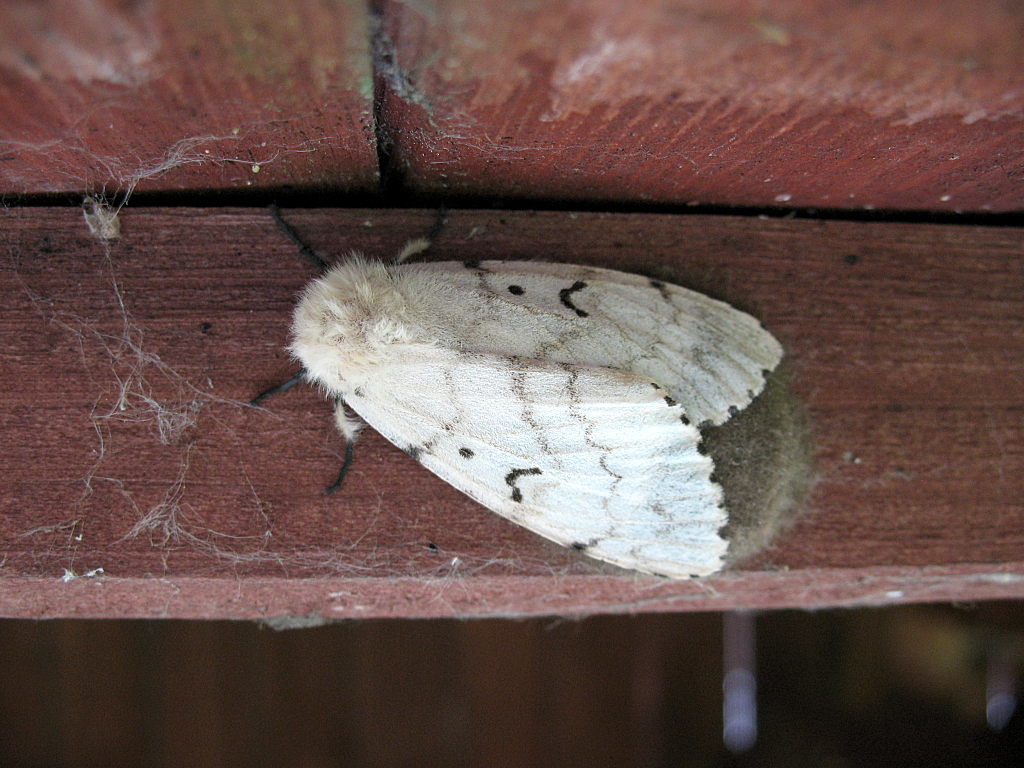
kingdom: Animalia
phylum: Arthropoda
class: Insecta
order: Lepidoptera
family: Erebidae
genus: Lymantria
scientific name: Lymantria dispar
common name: Gypsy moth
